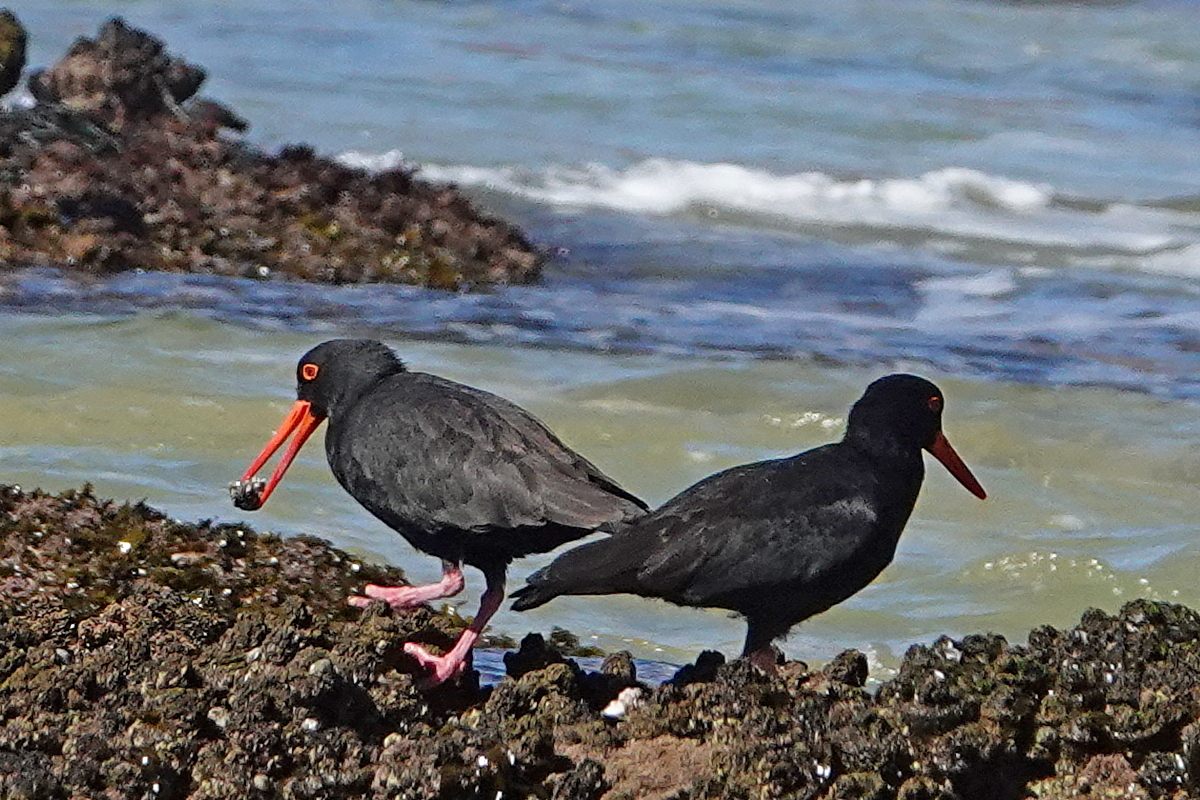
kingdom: Animalia
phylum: Chordata
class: Aves
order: Charadriiformes
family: Haematopodidae
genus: Haematopus
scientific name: Haematopus fuliginosus
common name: Sooty oystercatcher
